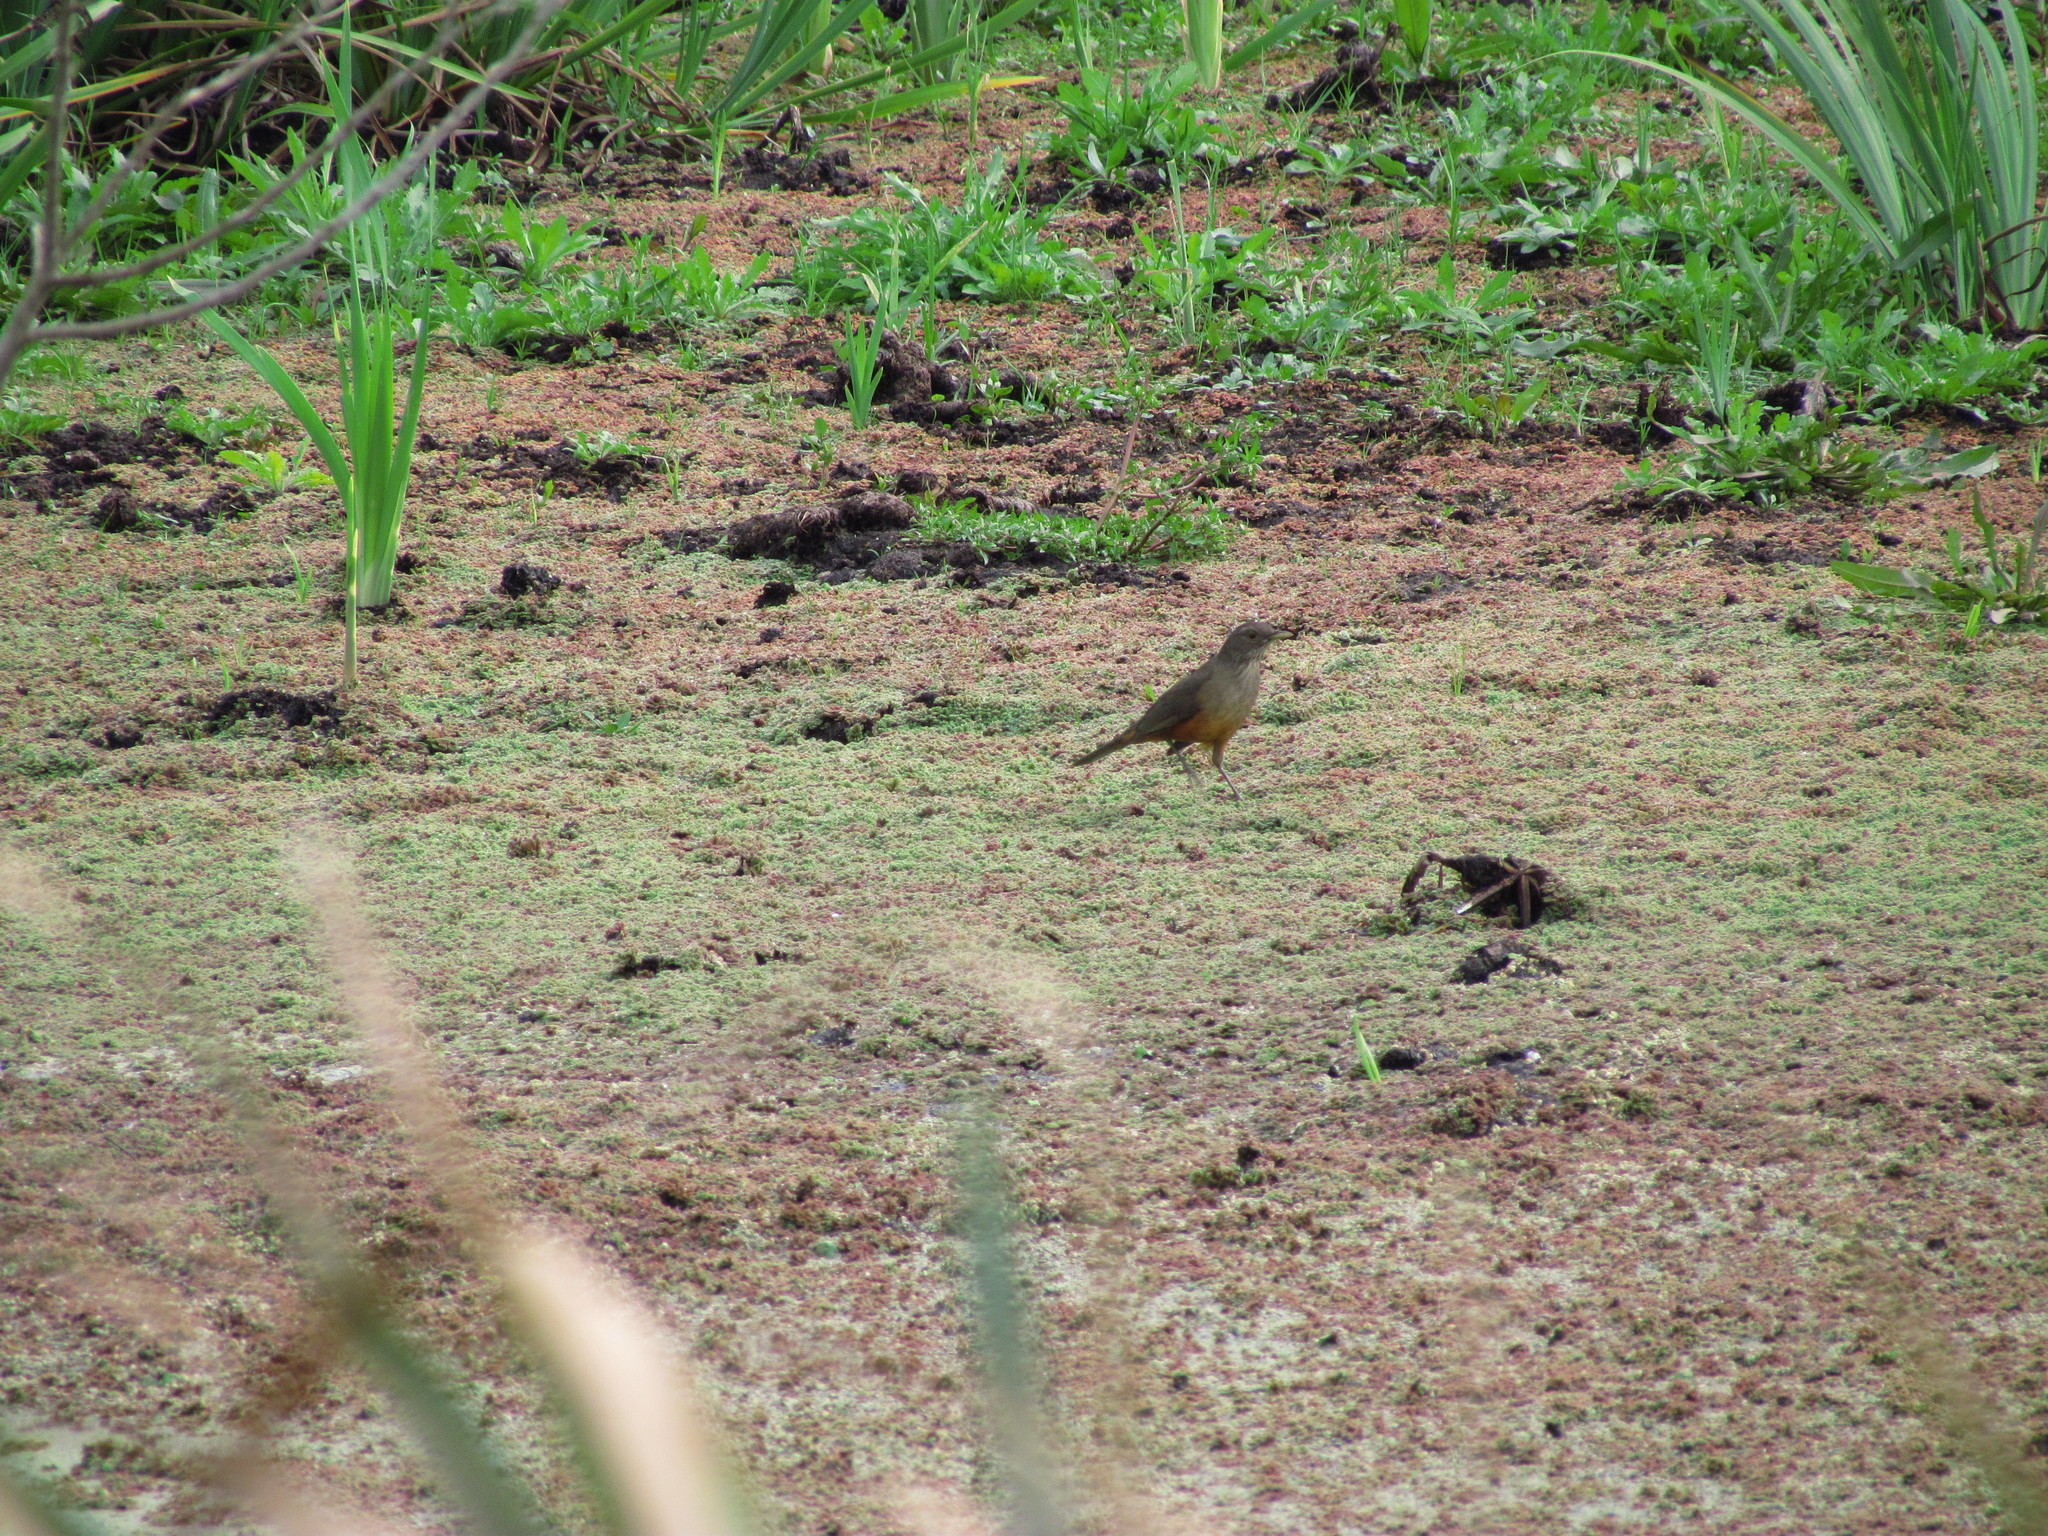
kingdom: Animalia
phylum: Chordata
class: Aves
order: Passeriformes
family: Turdidae
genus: Turdus
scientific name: Turdus rufiventris
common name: Rufous-bellied thrush
